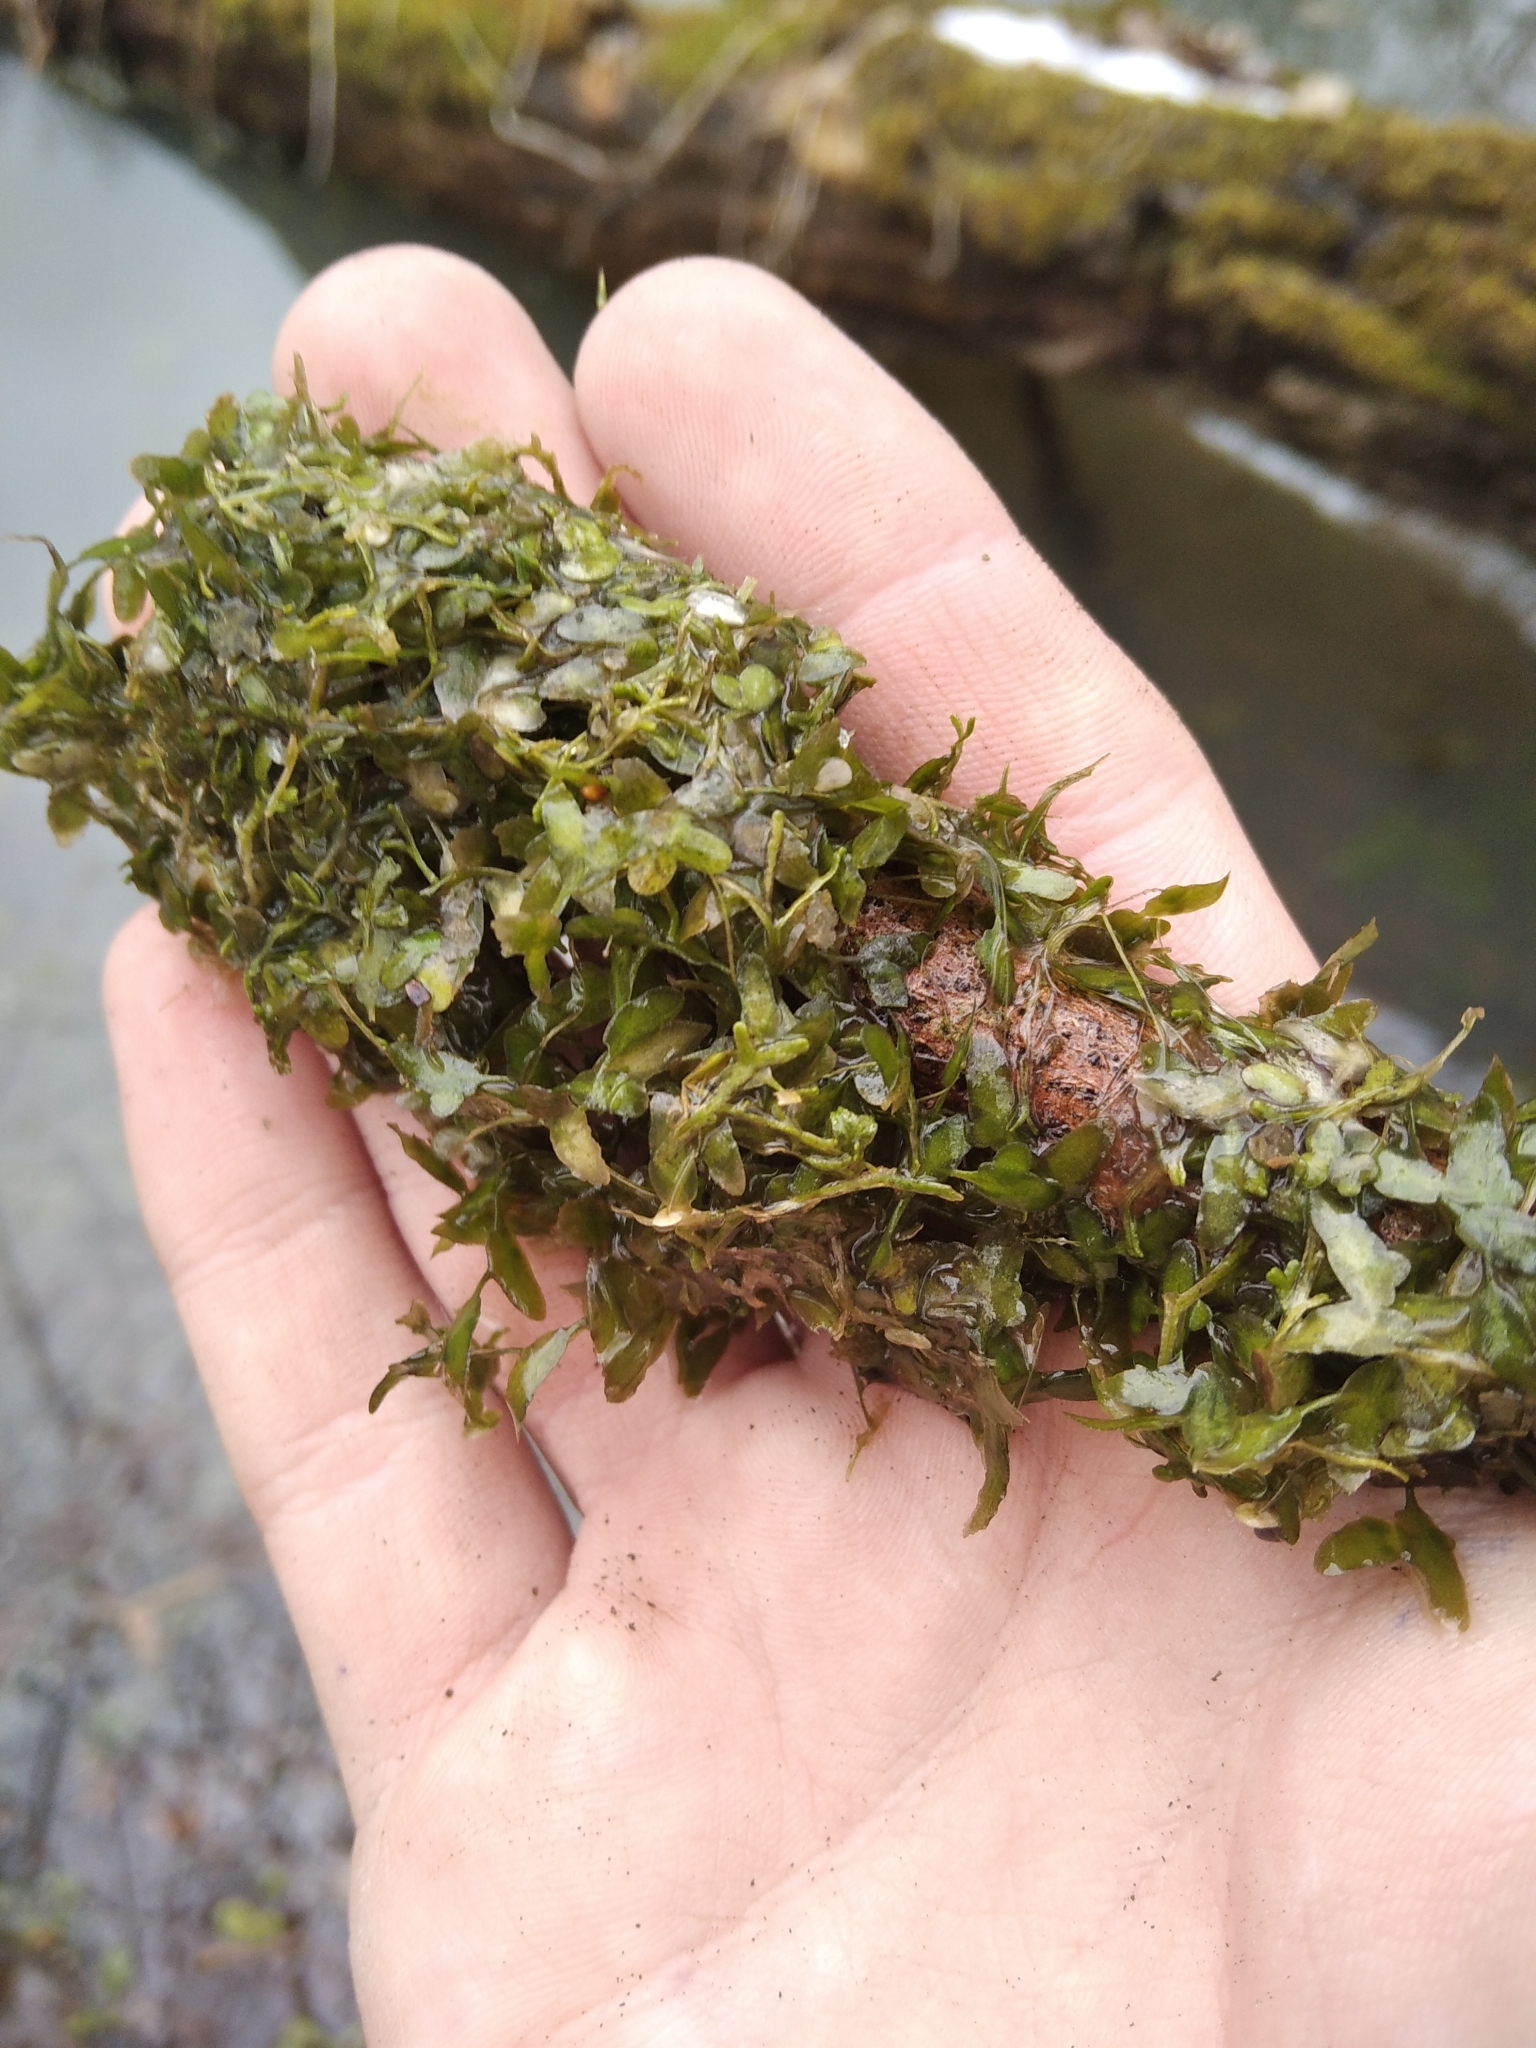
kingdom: Plantae
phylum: Tracheophyta
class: Liliopsida
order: Alismatales
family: Araceae
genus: Lemna
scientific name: Lemna trisulca
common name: Ivy-leaved duckweed
